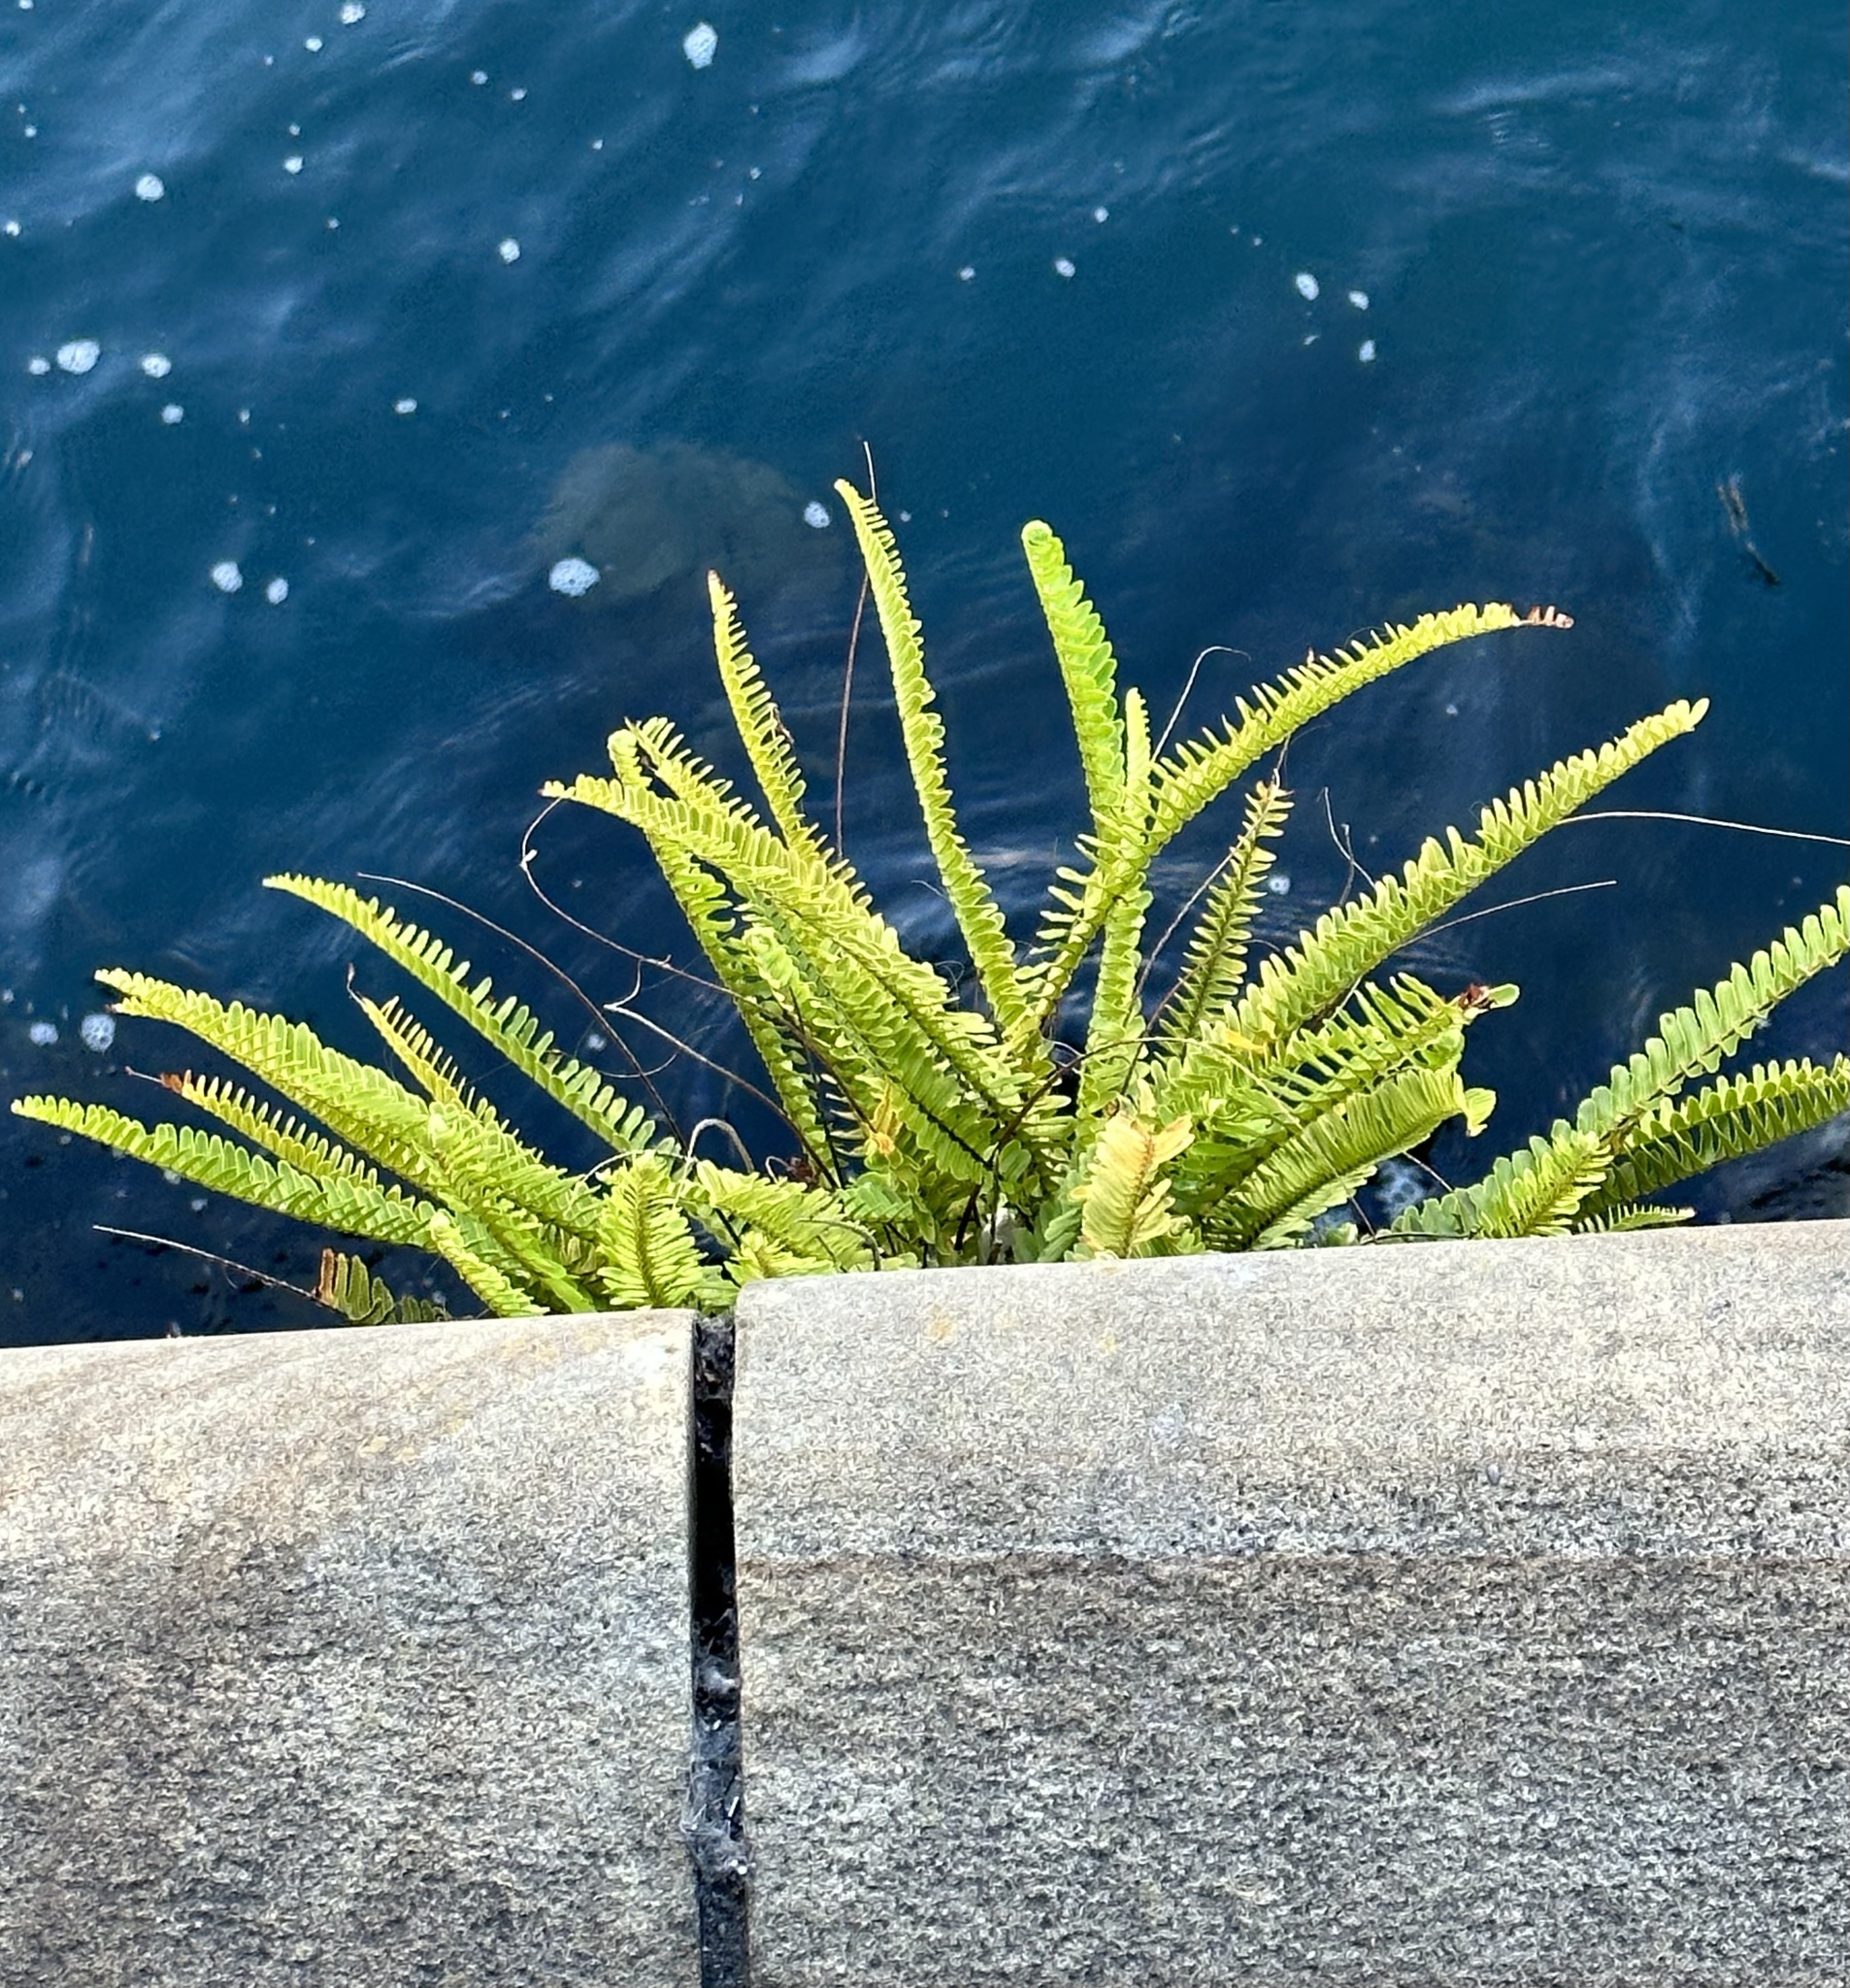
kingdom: Plantae
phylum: Tracheophyta
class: Polypodiopsida
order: Polypodiales
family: Nephrolepidaceae
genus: Nephrolepis
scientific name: Nephrolepis cordifolia
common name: Narrow swordfern
